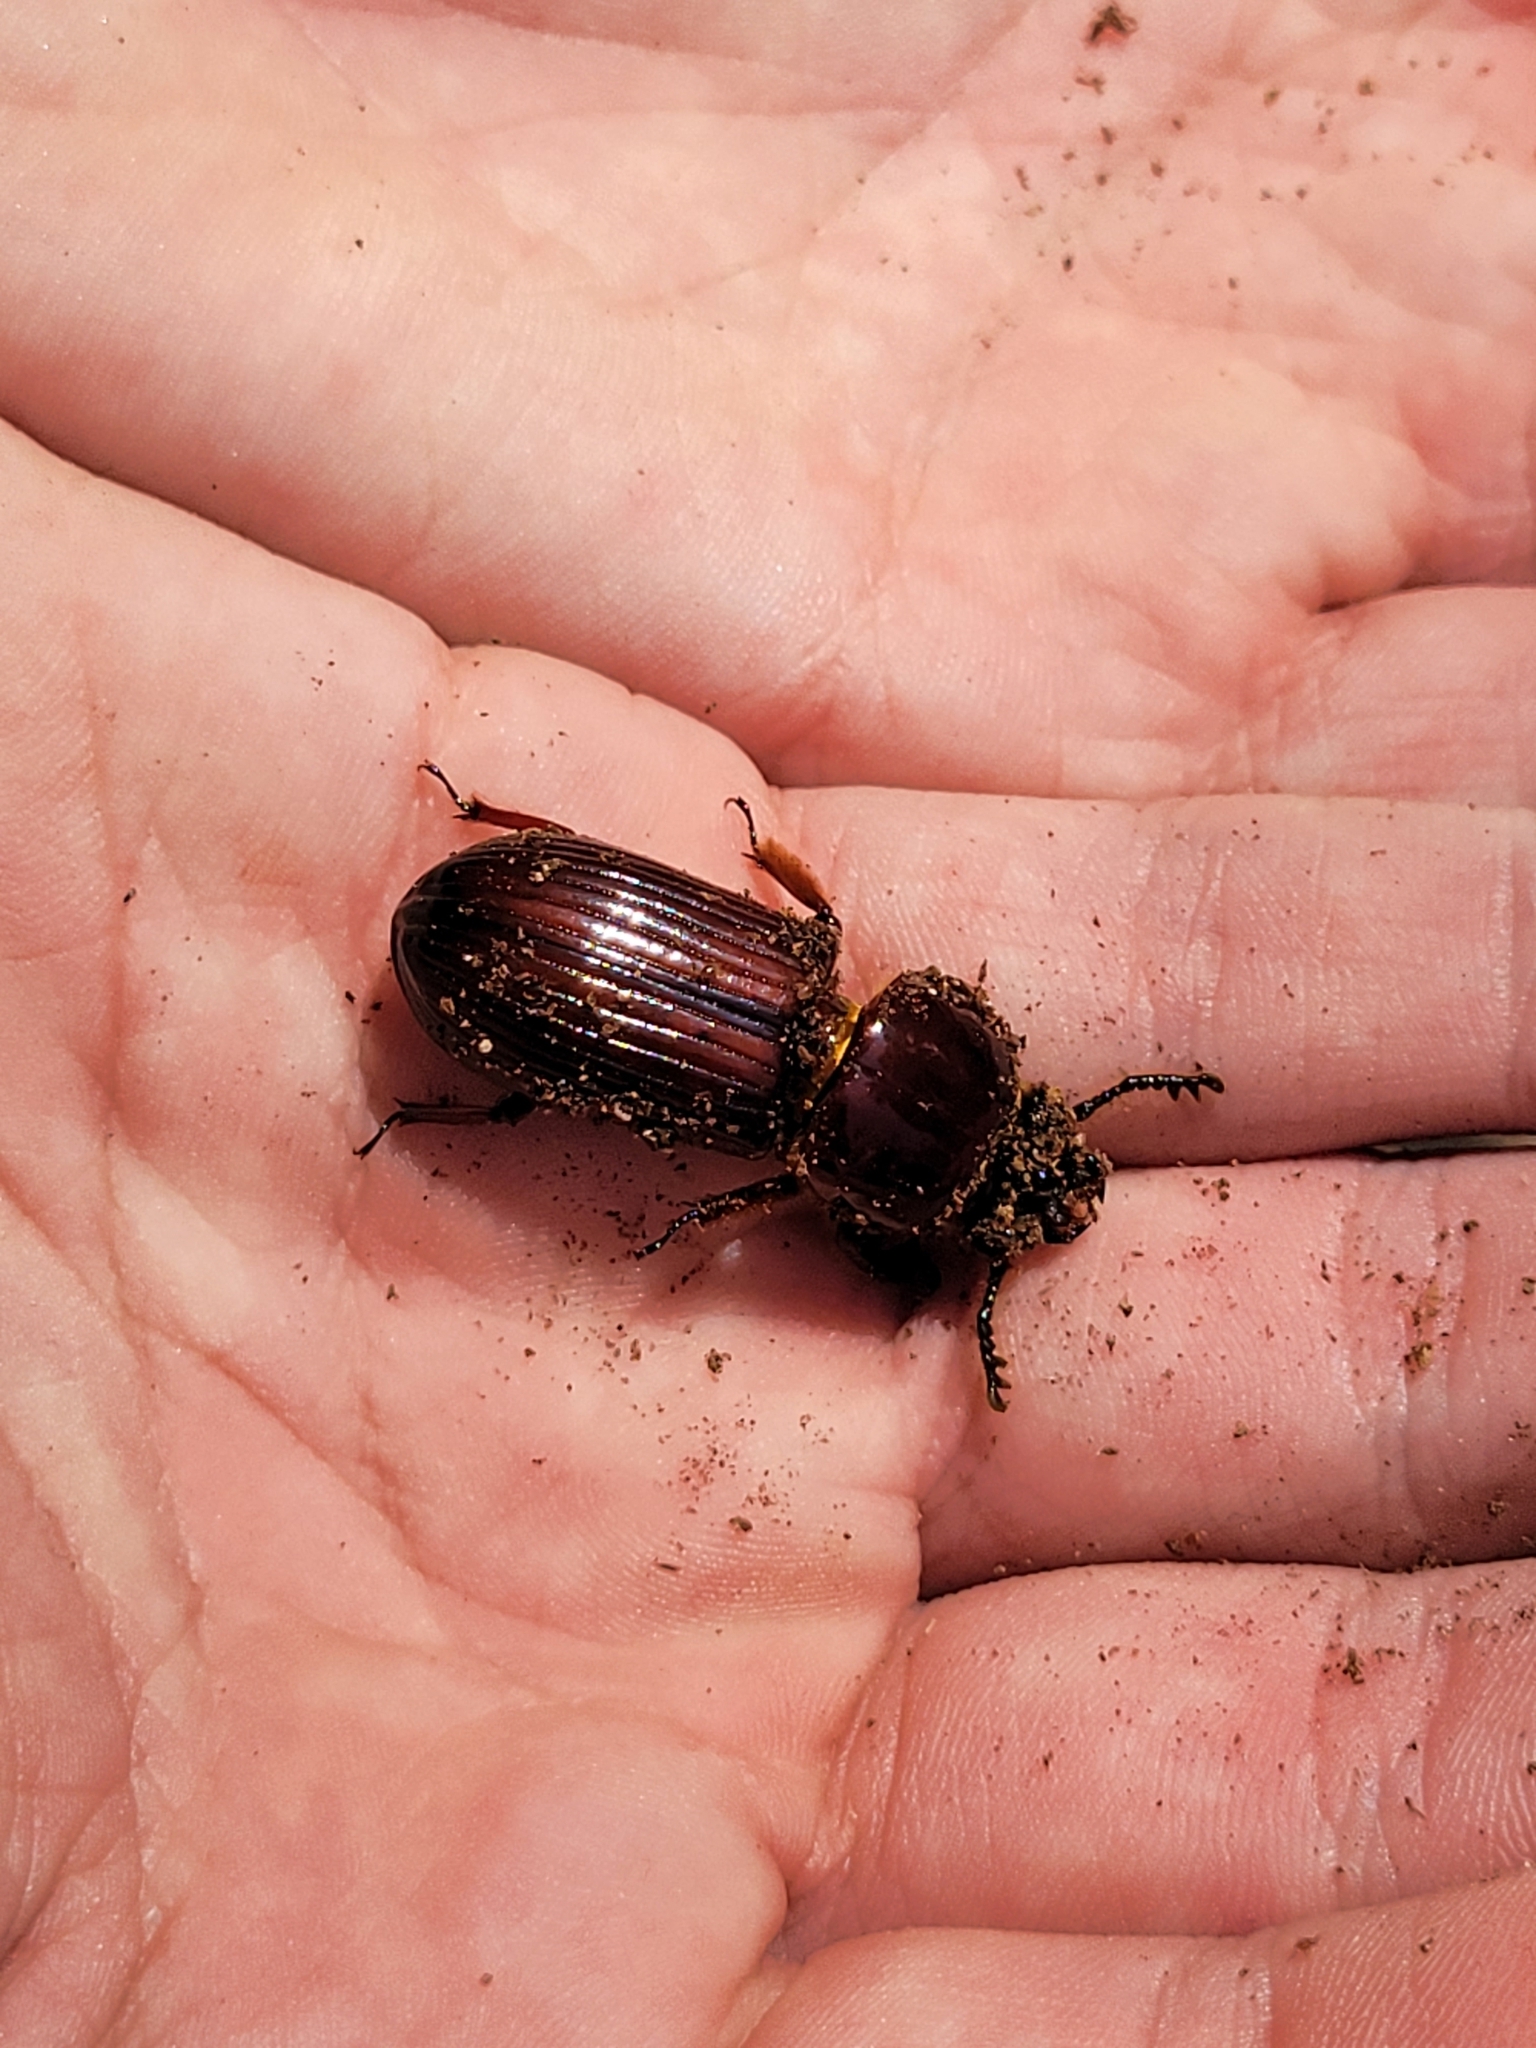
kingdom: Animalia
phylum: Arthropoda
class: Insecta
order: Coleoptera
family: Passalidae
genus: Odontotaenius
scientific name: Odontotaenius disjunctus
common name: Patent leather beetle
